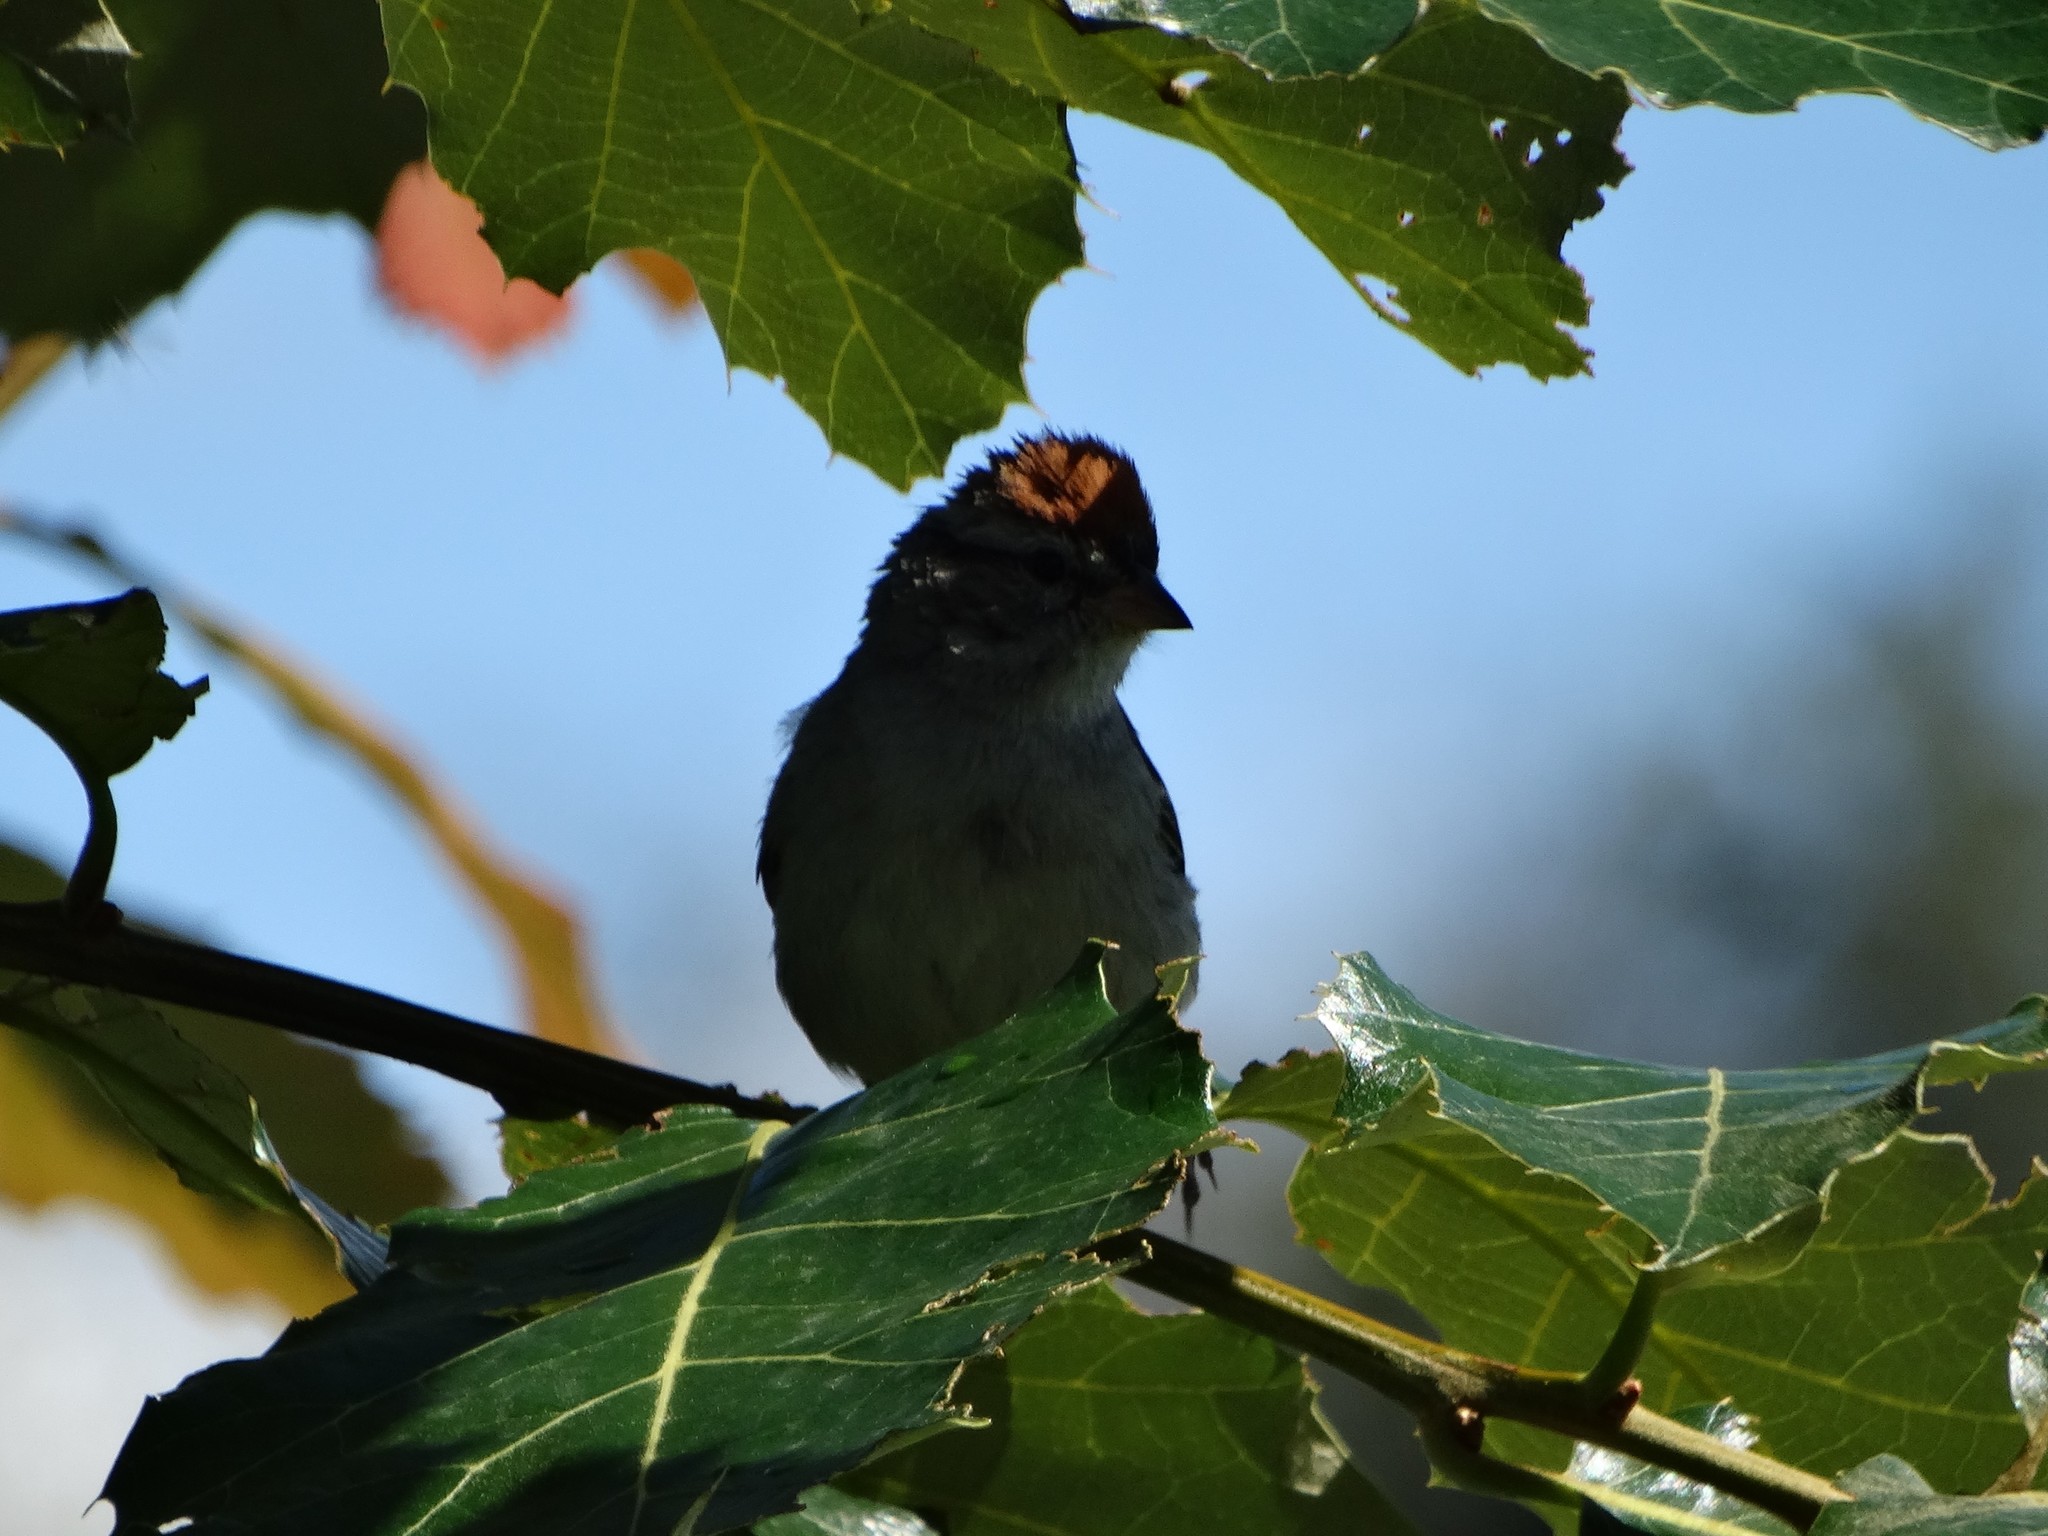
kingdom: Animalia
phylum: Chordata
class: Aves
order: Passeriformes
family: Passerellidae
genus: Spizella
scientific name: Spizella passerina
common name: Chipping sparrow
